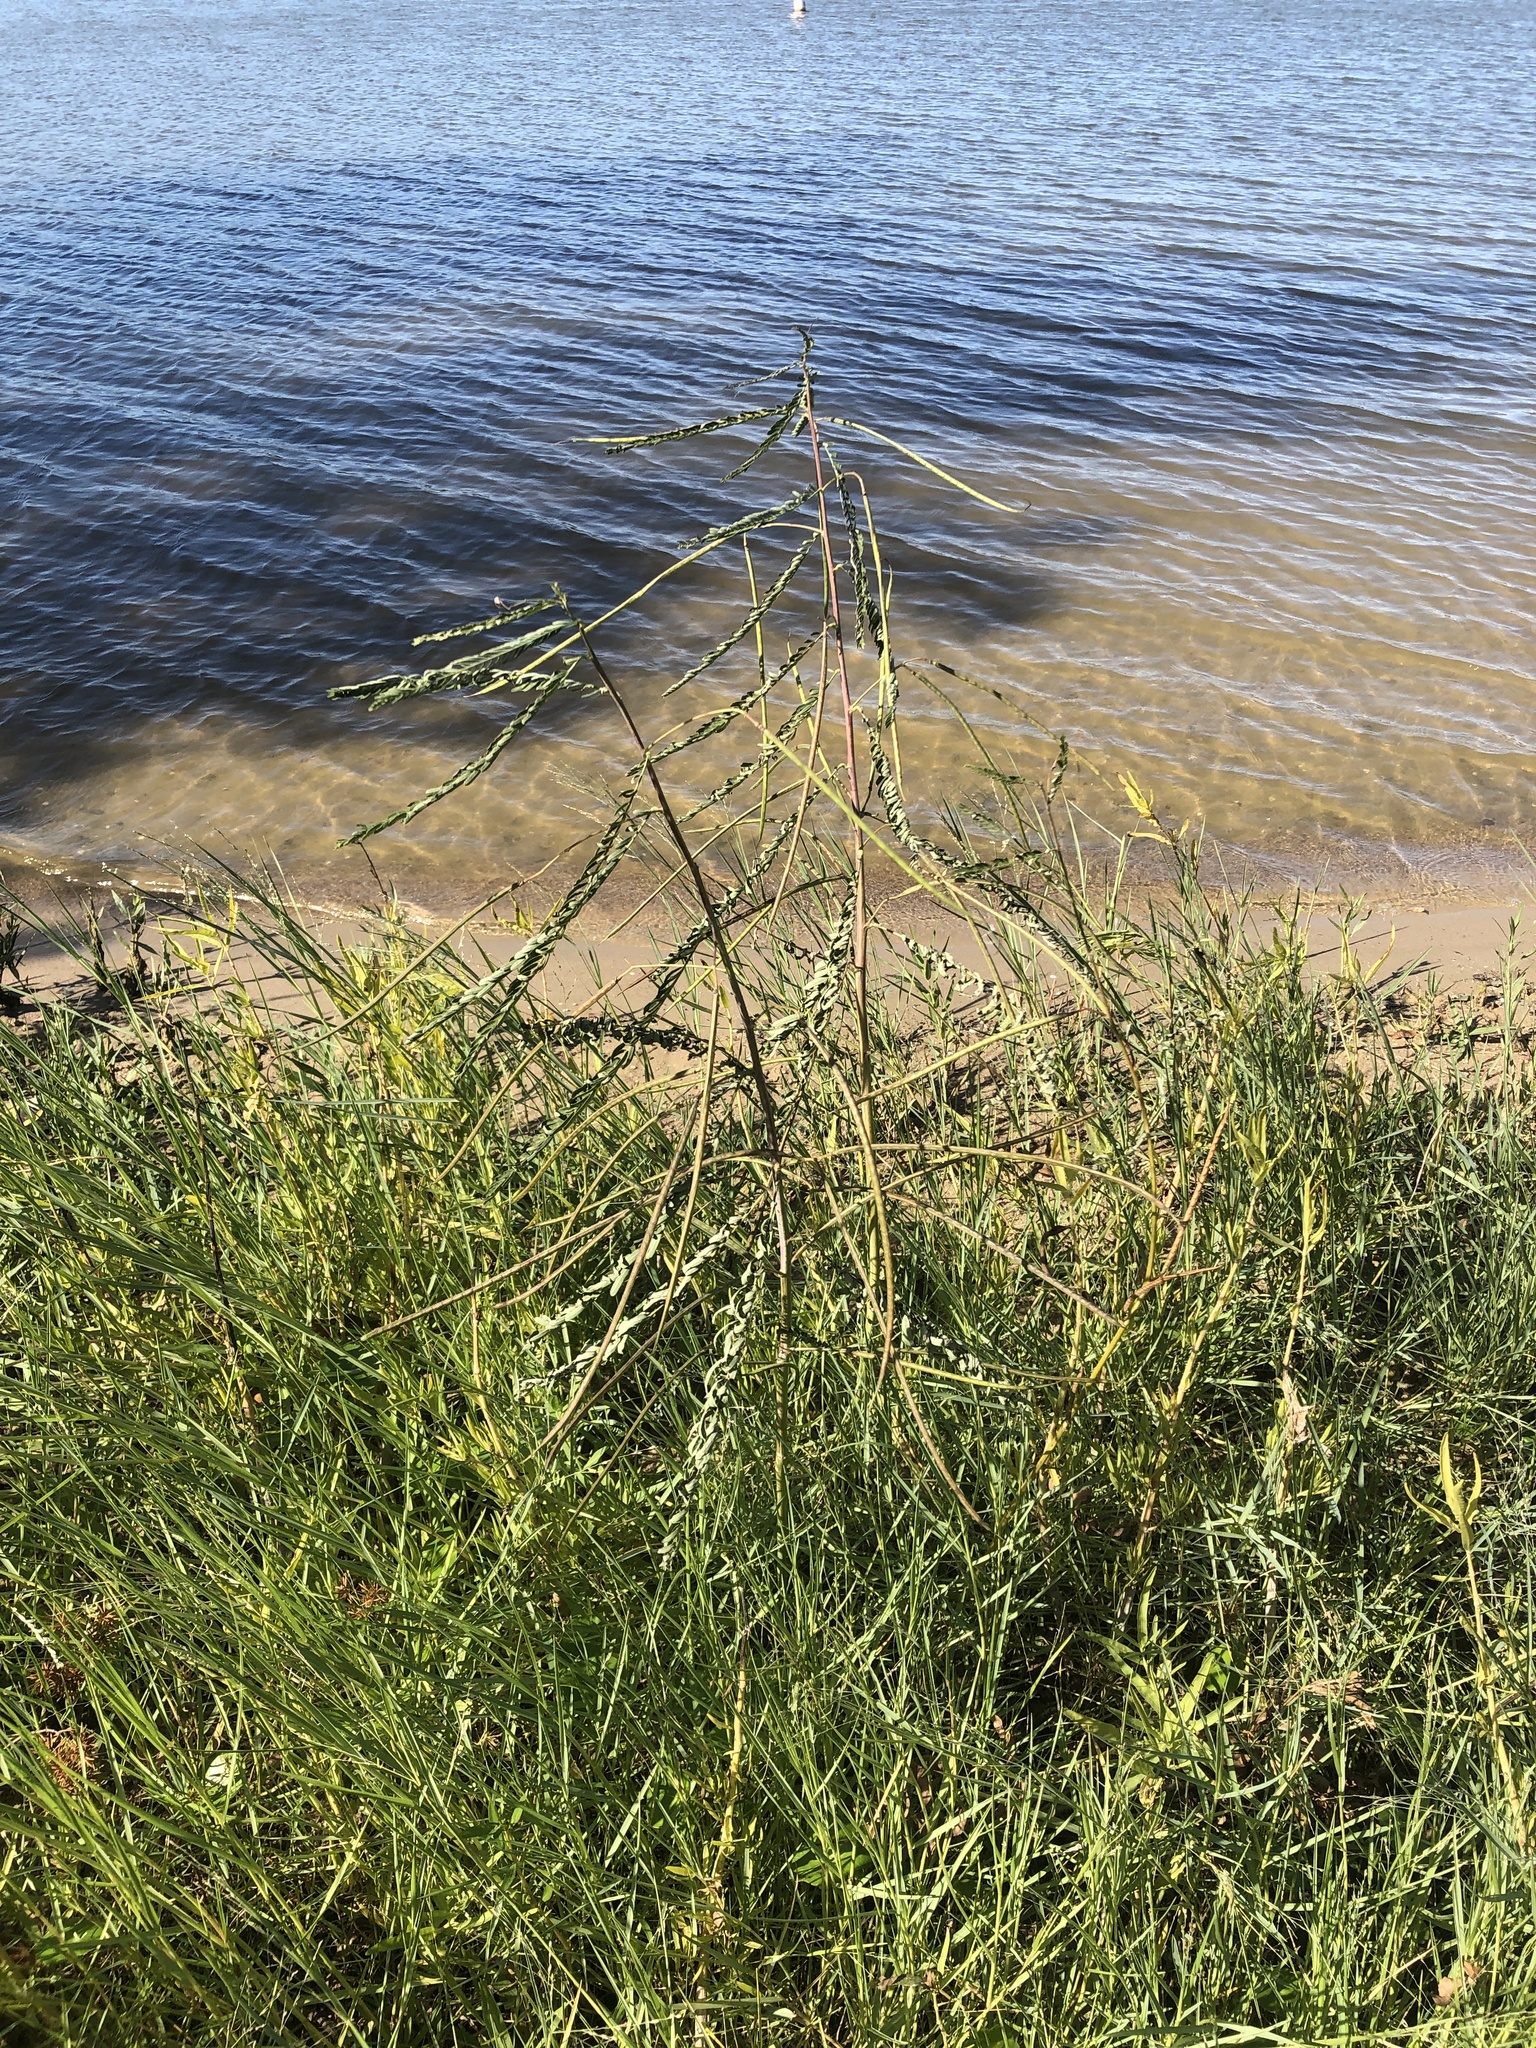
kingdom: Plantae
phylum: Tracheophyta
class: Magnoliopsida
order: Fabales
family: Fabaceae
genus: Sesbania
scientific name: Sesbania herbacea
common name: Bigpod sesbania
